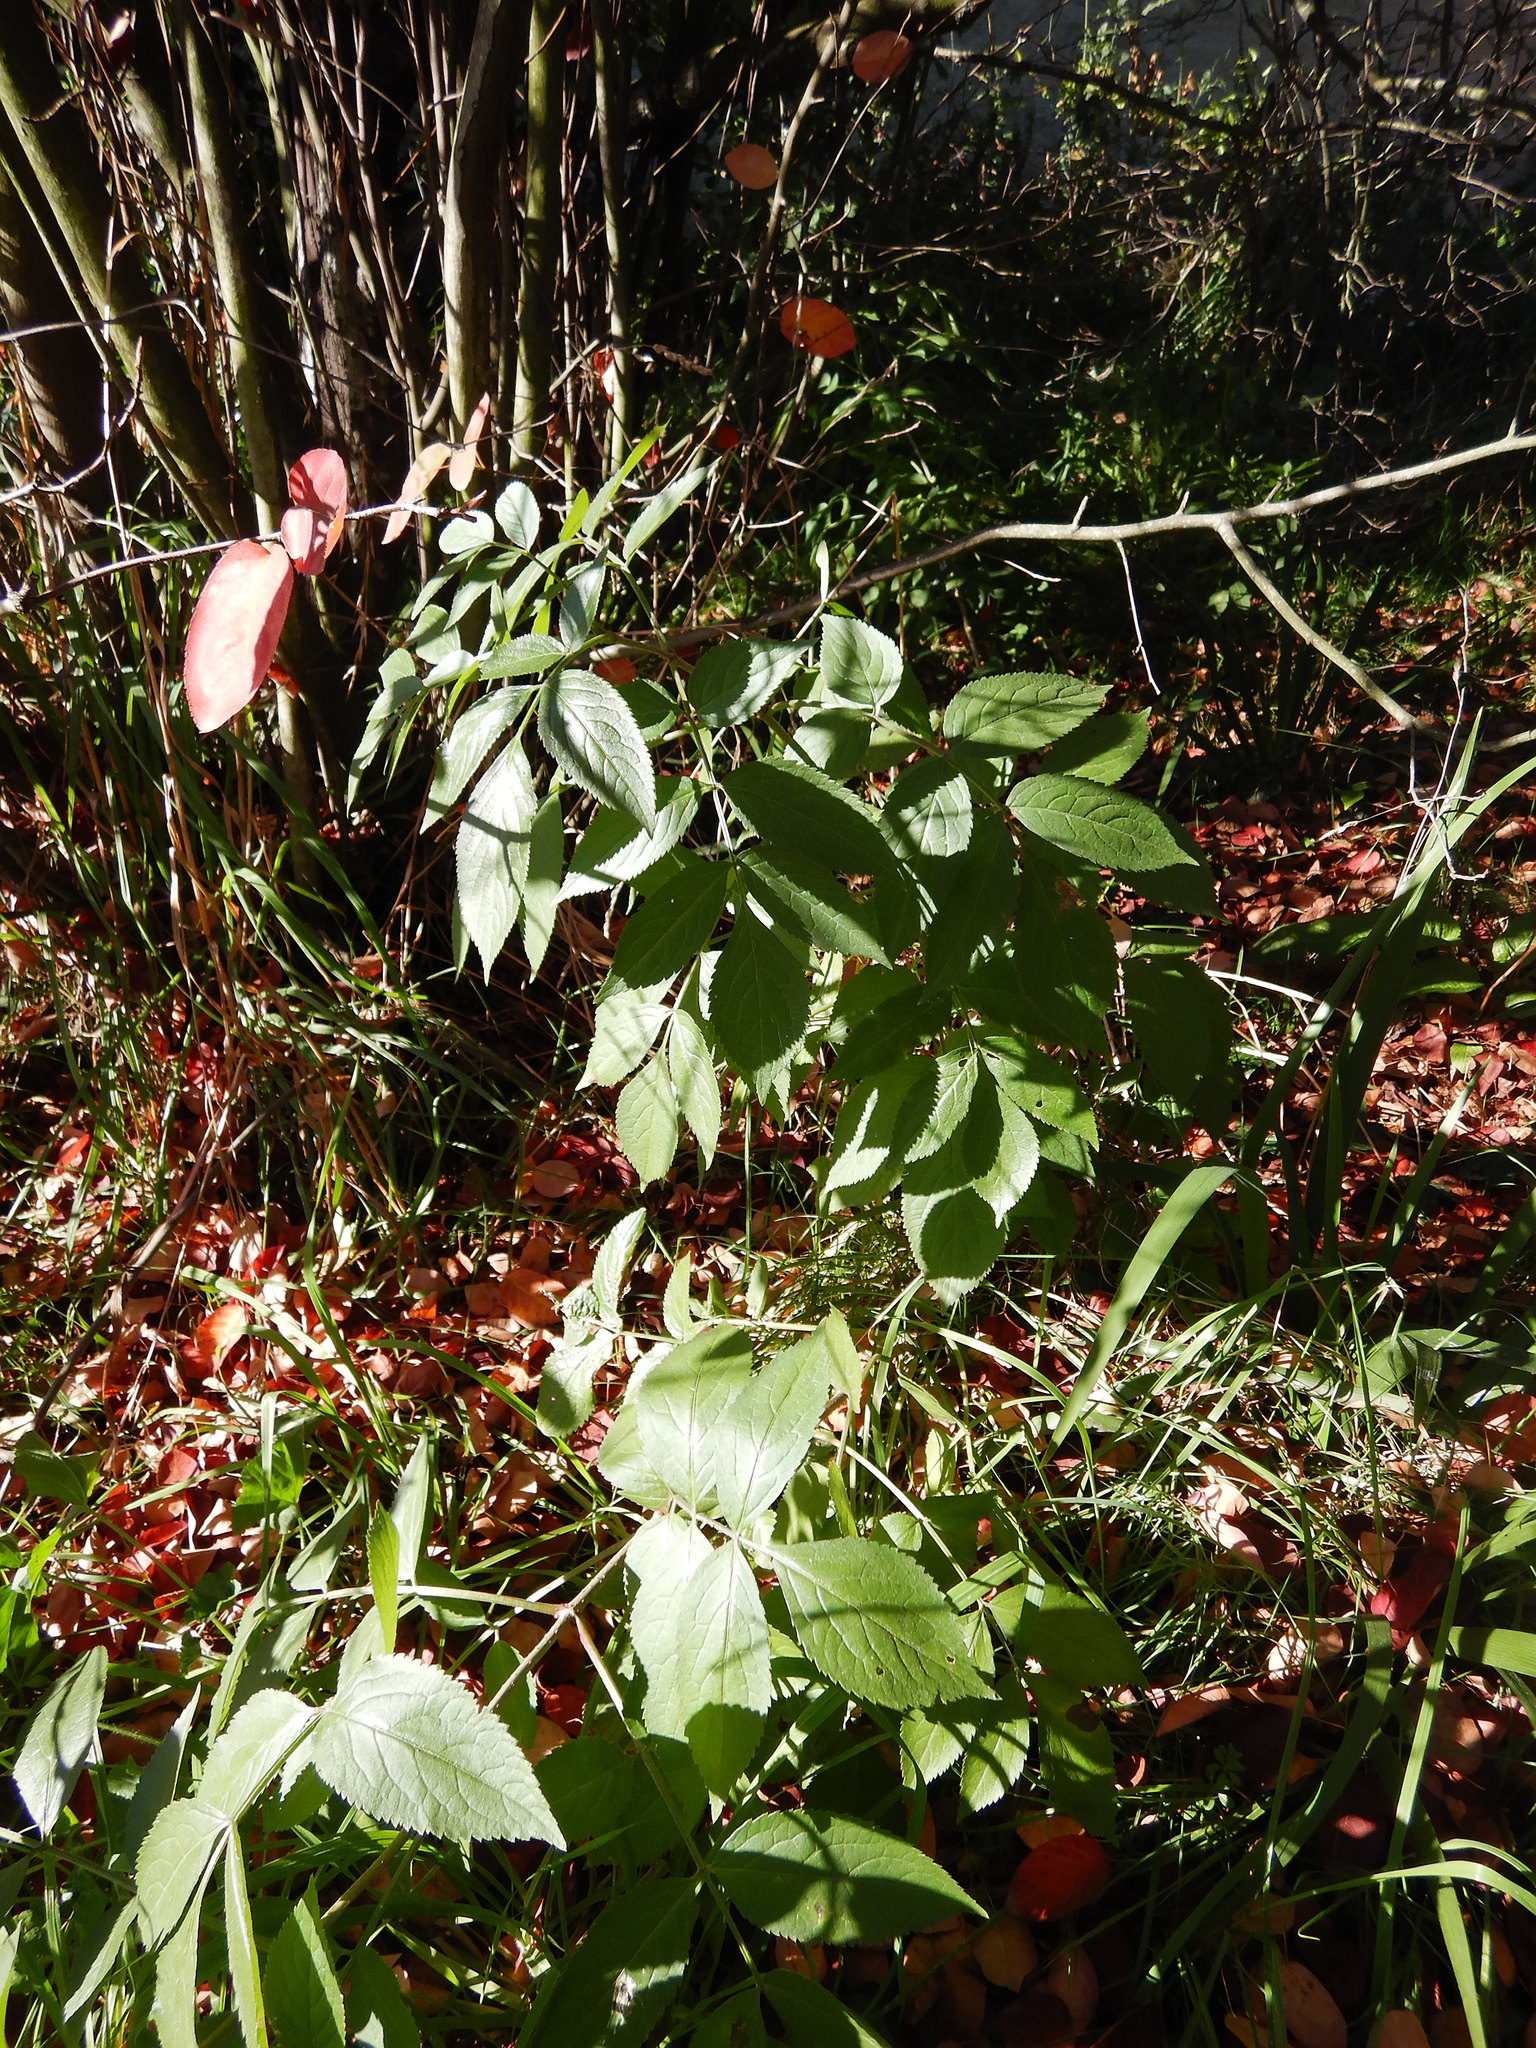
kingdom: Plantae
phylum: Tracheophyta
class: Magnoliopsida
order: Dipsacales
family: Viburnaceae
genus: Sambucus
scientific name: Sambucus nigra
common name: Elder
